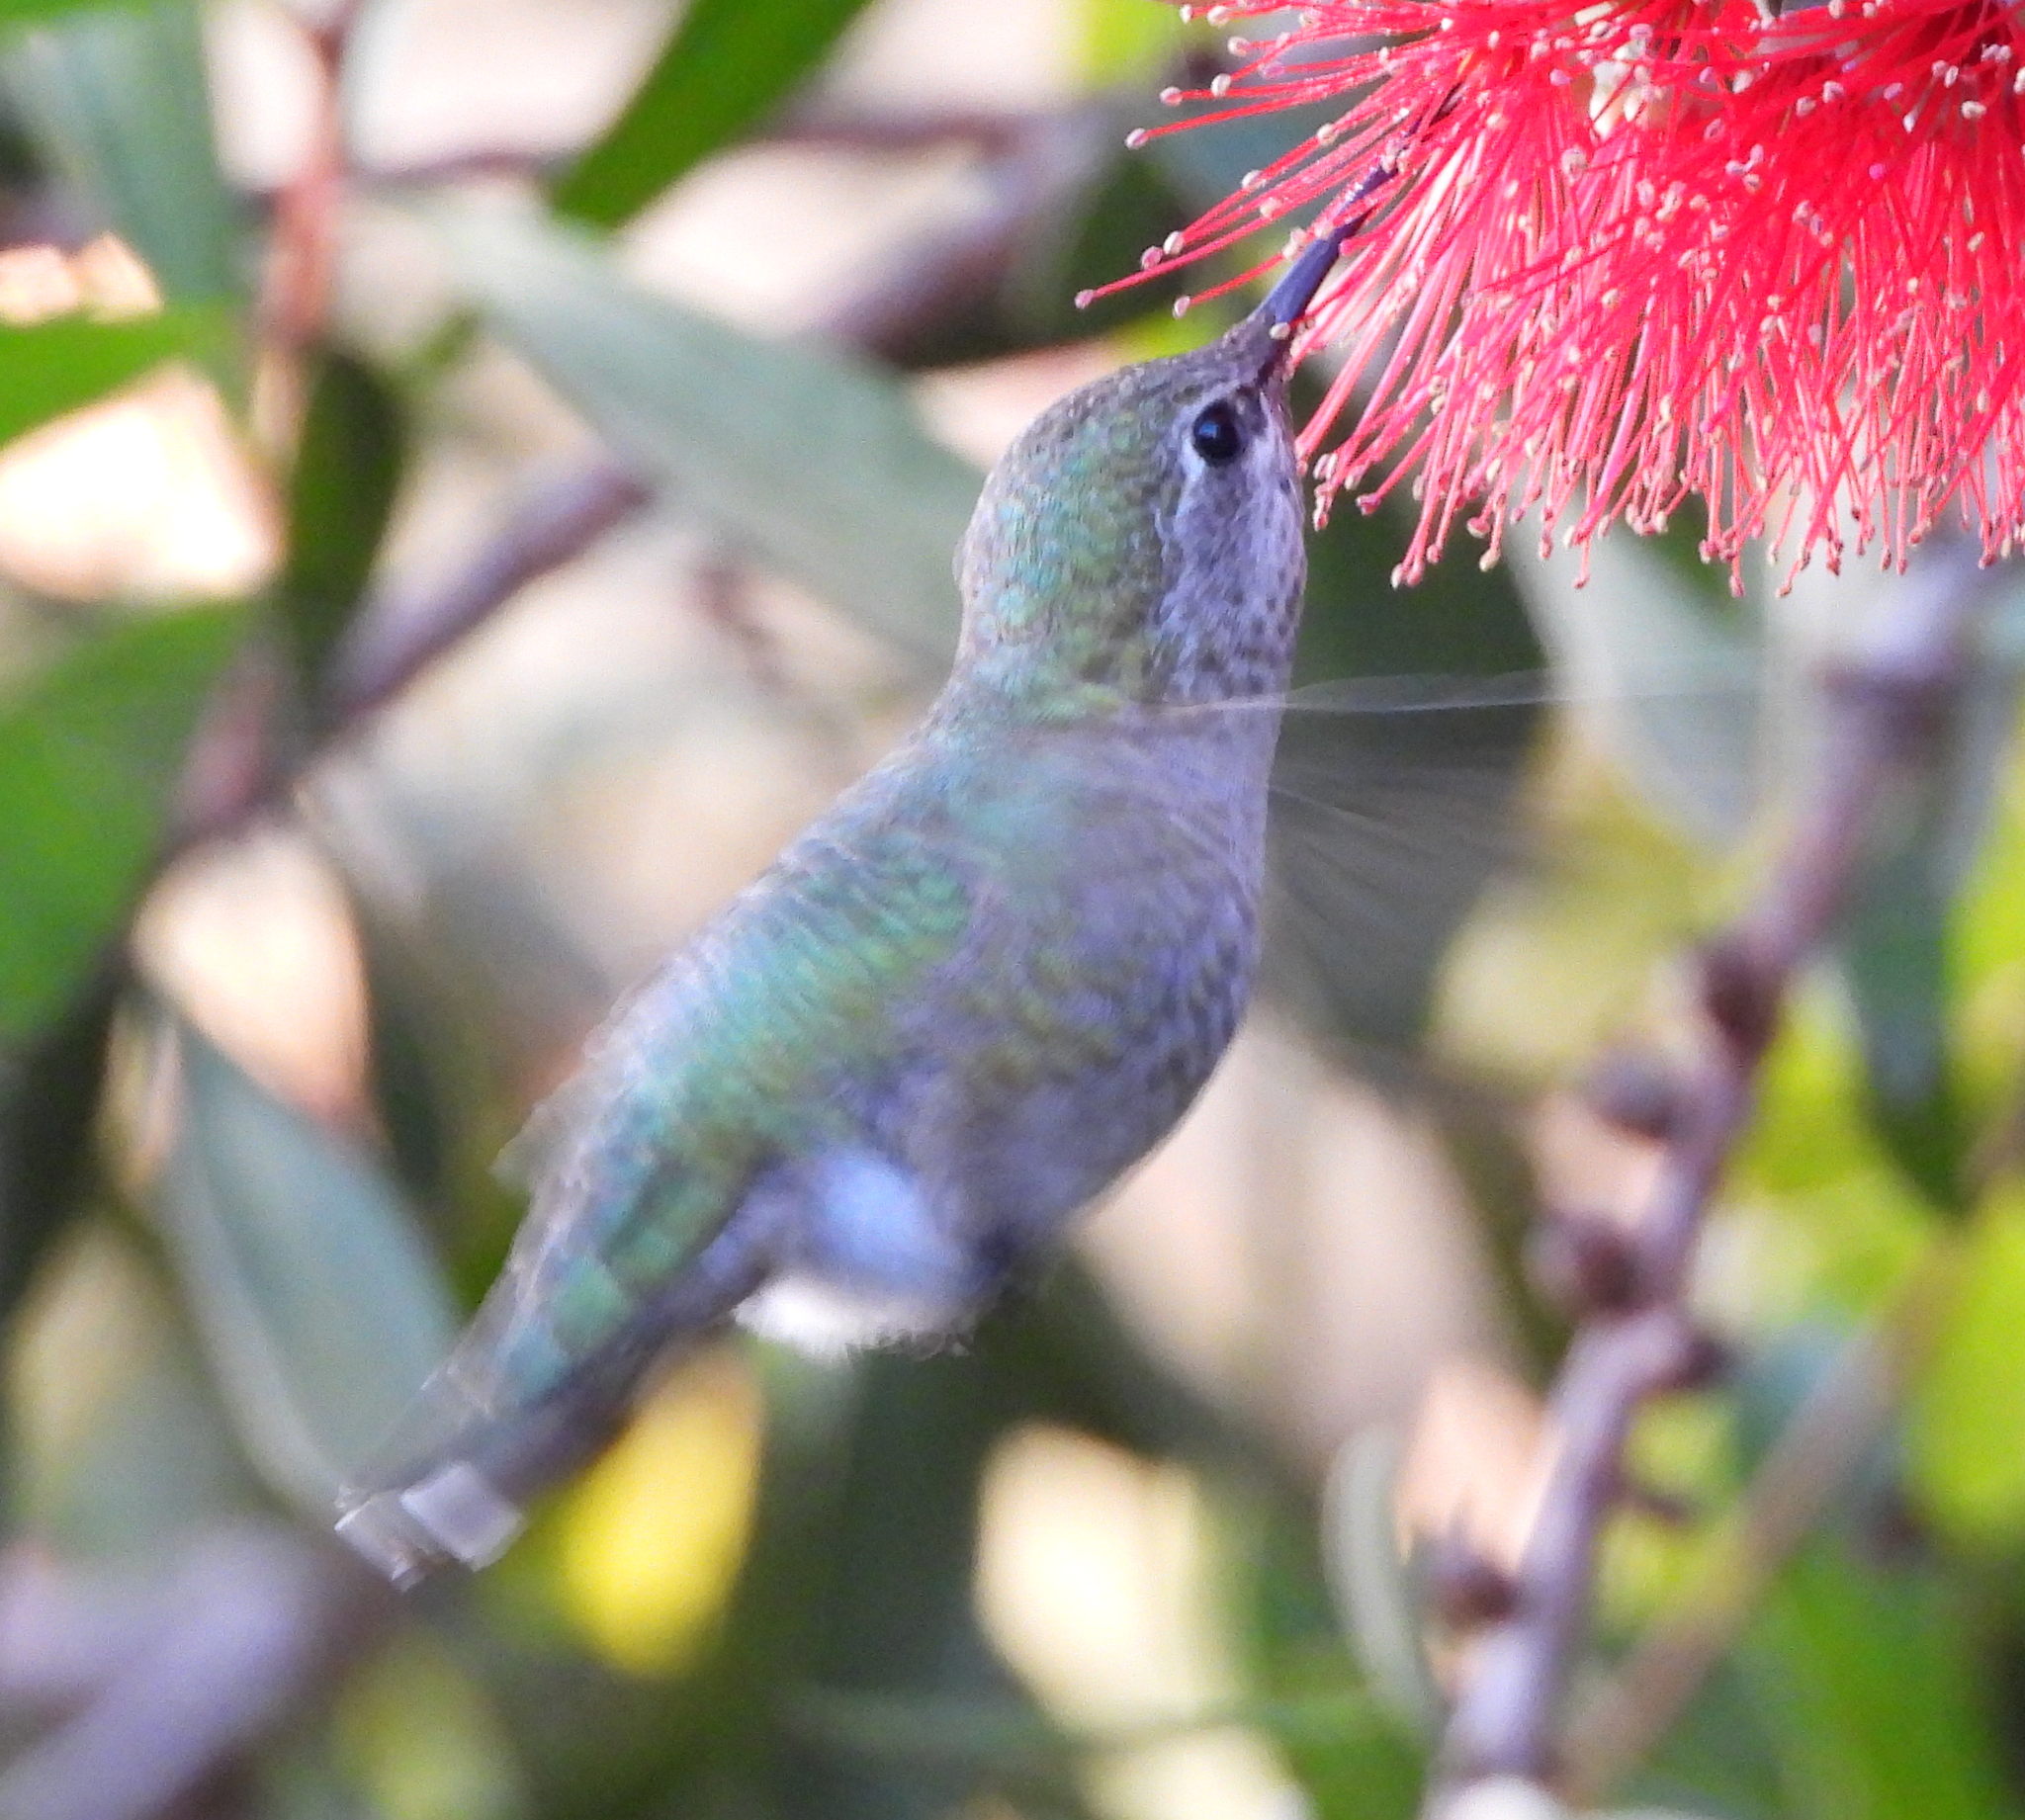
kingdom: Animalia
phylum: Chordata
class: Aves
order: Apodiformes
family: Trochilidae
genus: Calypte
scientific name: Calypte anna
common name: Anna's hummingbird
